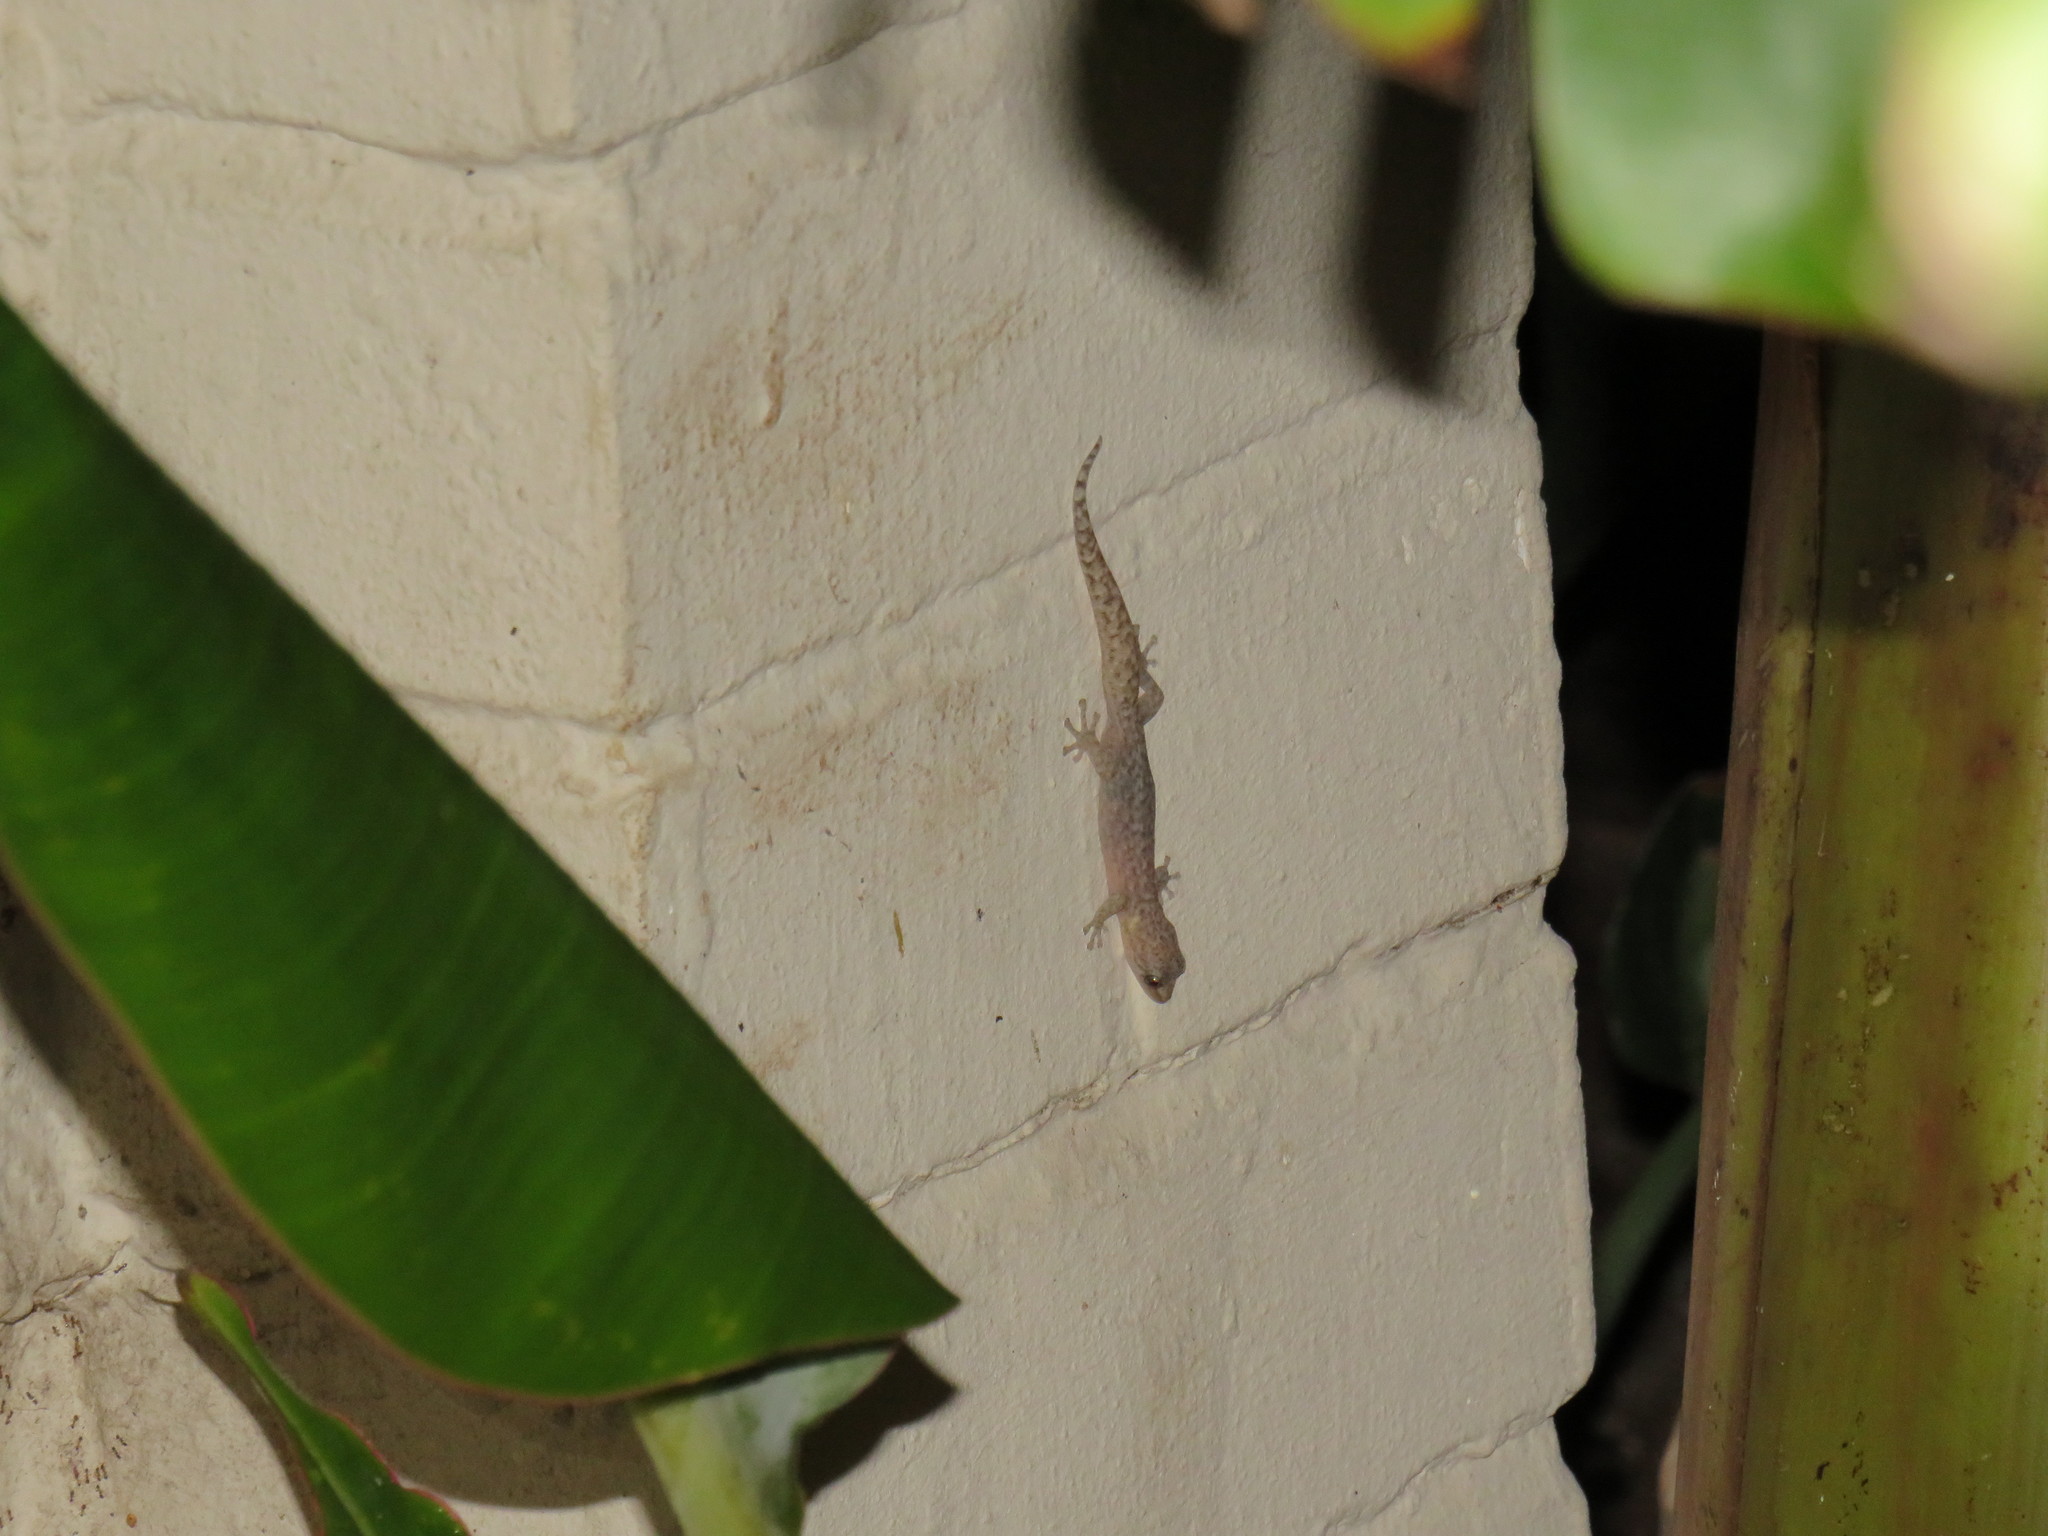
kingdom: Animalia
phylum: Chordata
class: Squamata
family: Gekkonidae
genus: Afrogecko
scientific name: Afrogecko porphyreus
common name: Marbled leaf-toed gecko
